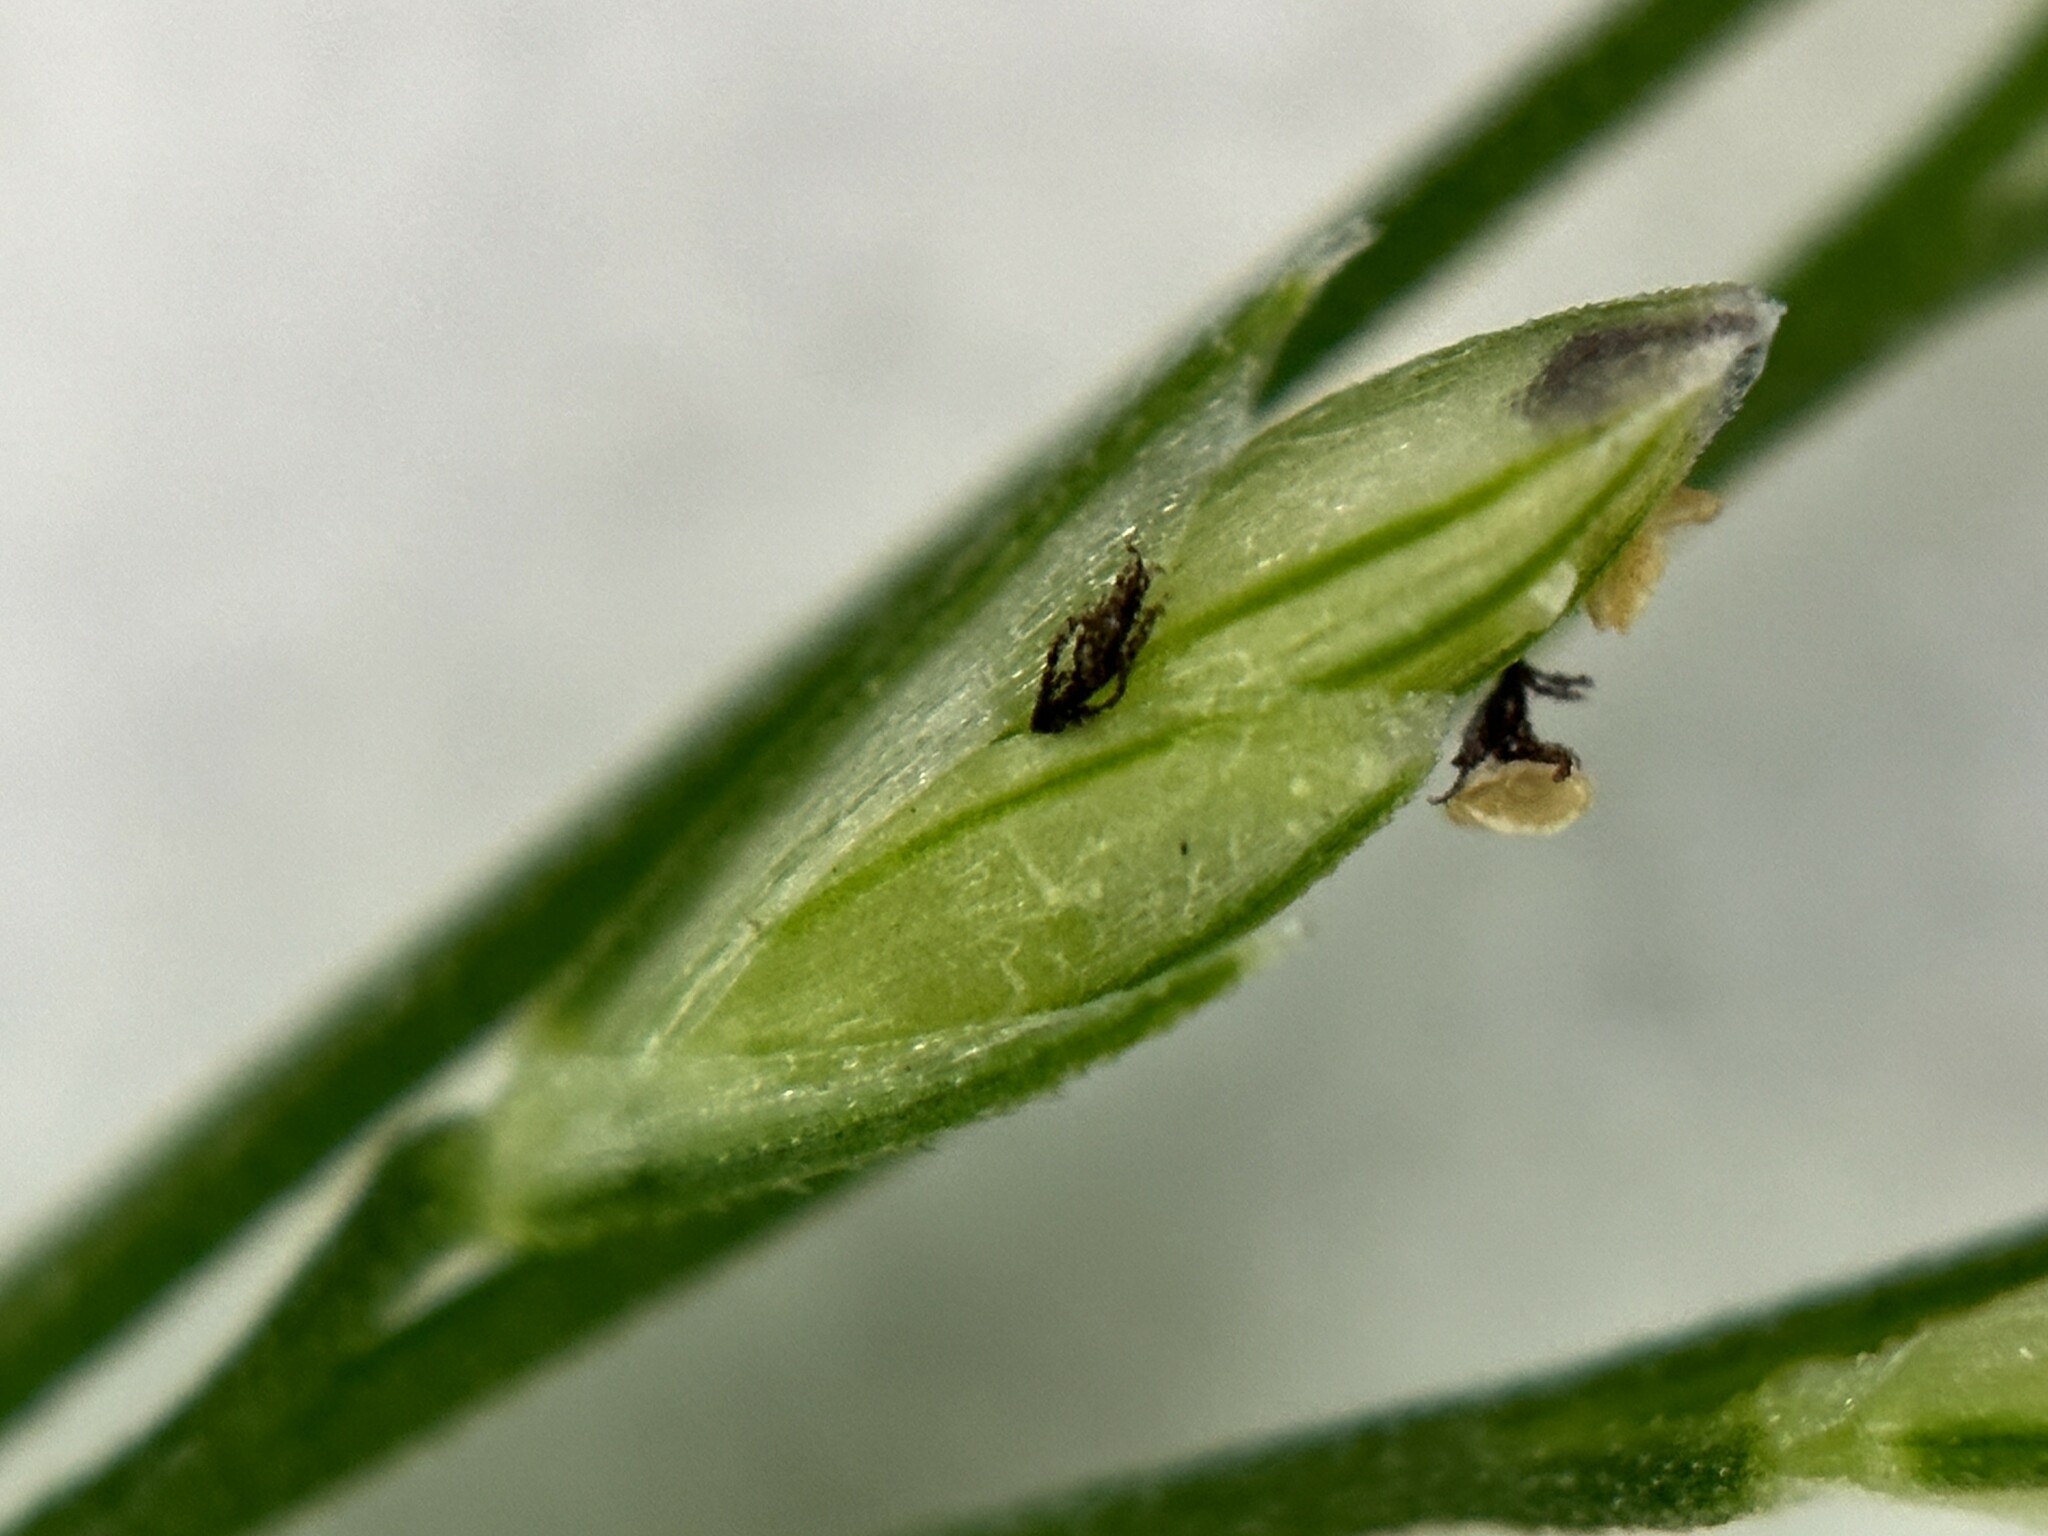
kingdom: Plantae
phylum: Tracheophyta
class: Liliopsida
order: Poales
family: Poaceae
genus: Leptochloa
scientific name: Leptochloa panicea
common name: Mucronate sprangletop
